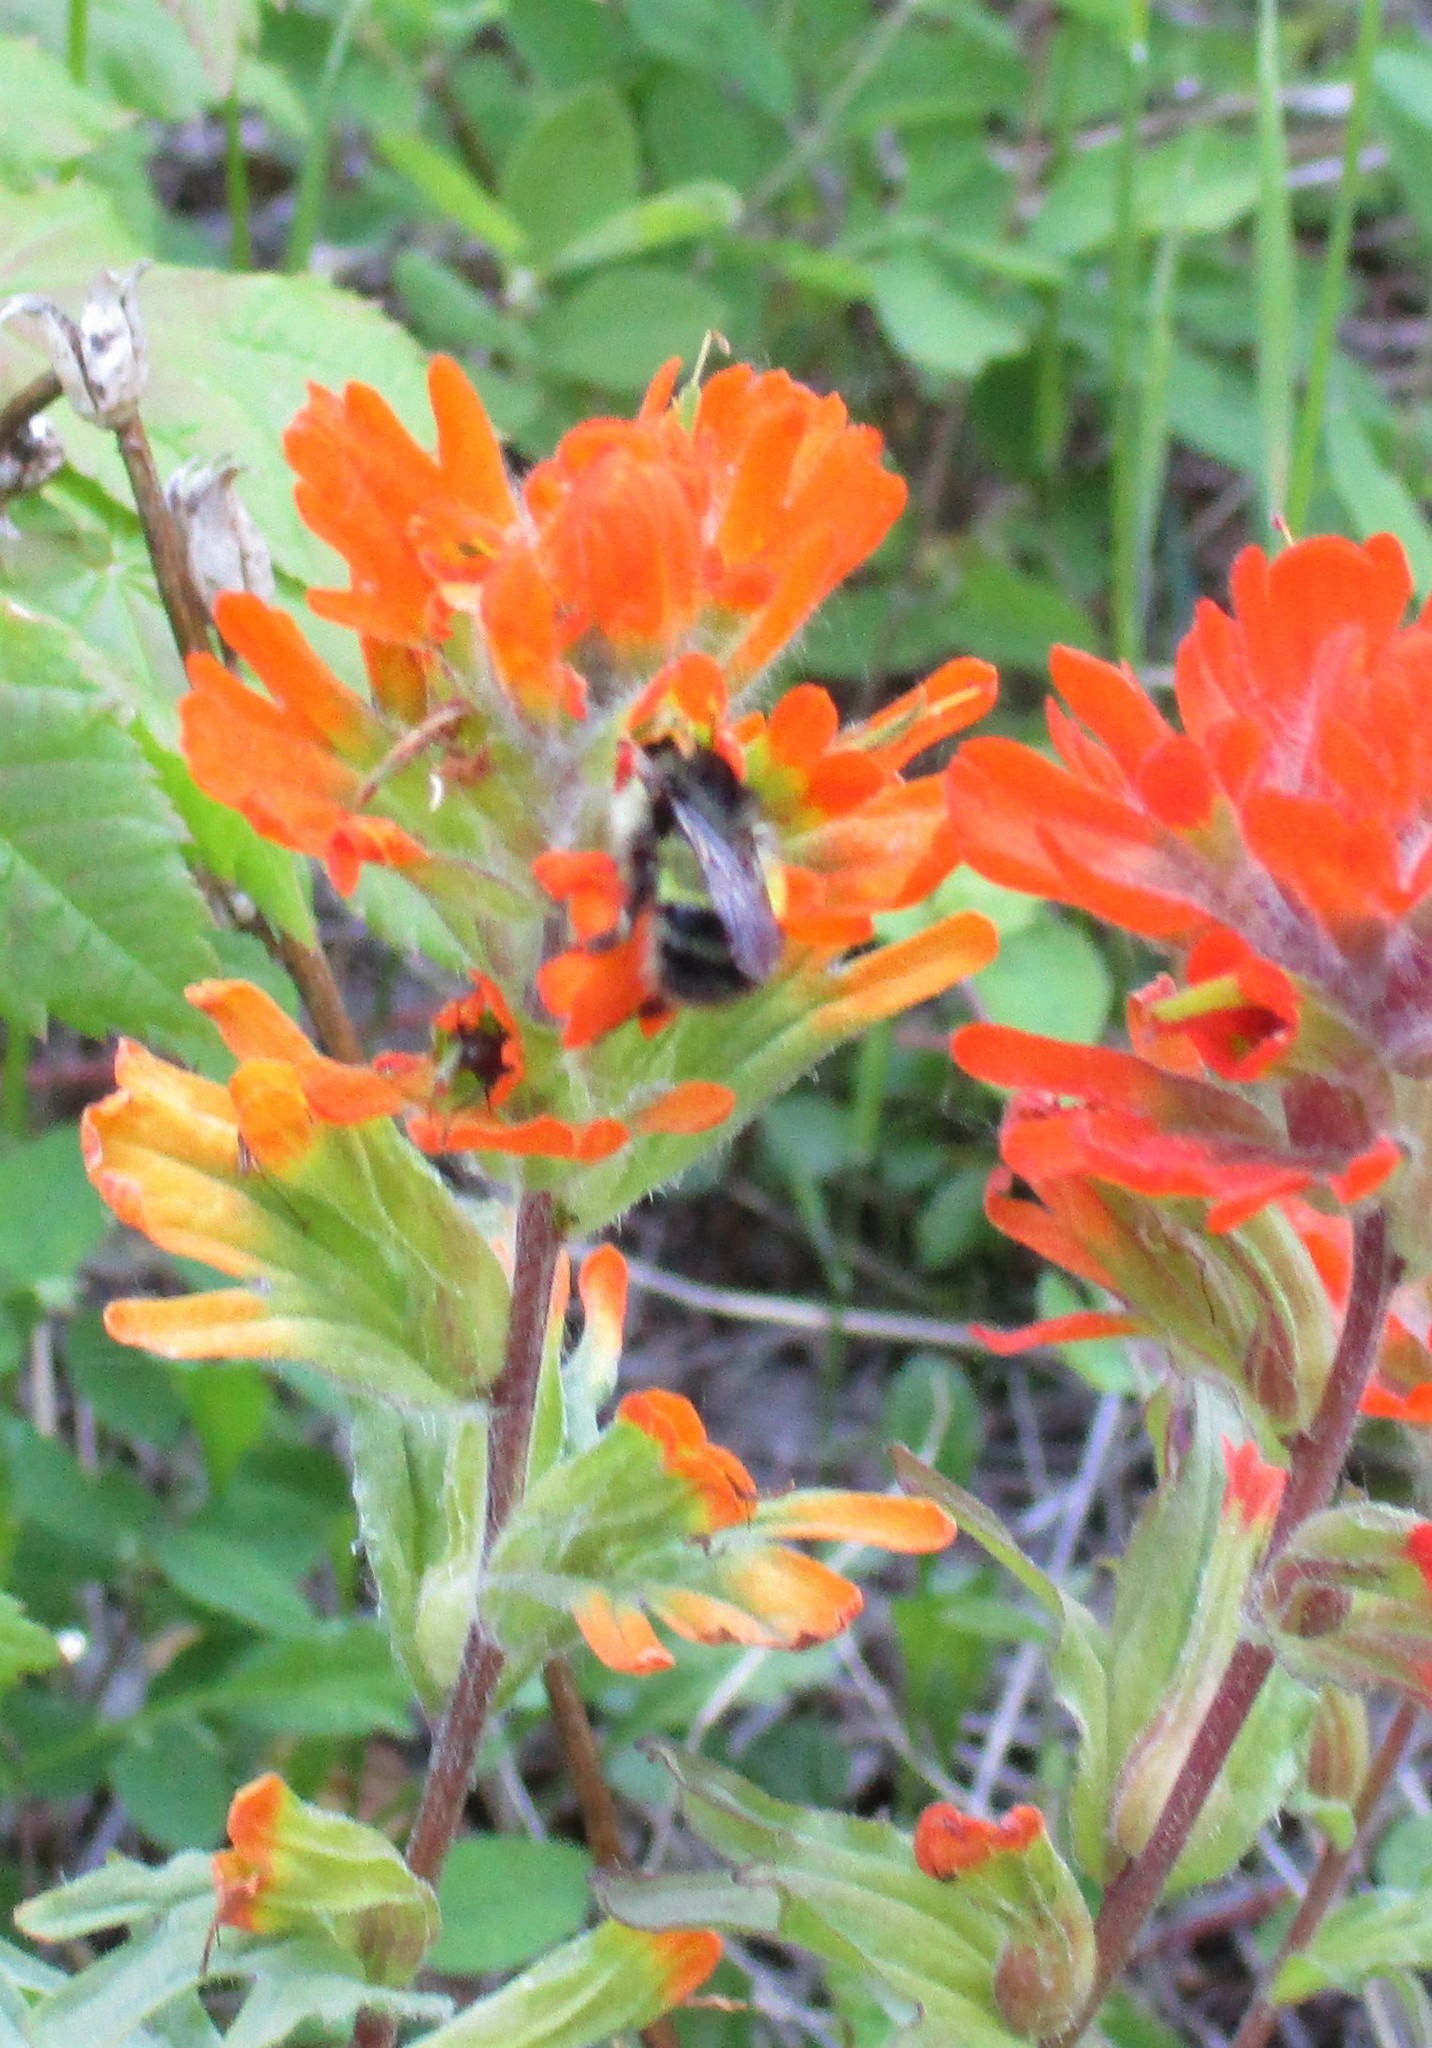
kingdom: Animalia
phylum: Arthropoda
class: Insecta
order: Hymenoptera
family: Apidae
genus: Bombus
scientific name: Bombus flavifrons
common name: Yellow head bumble bee
